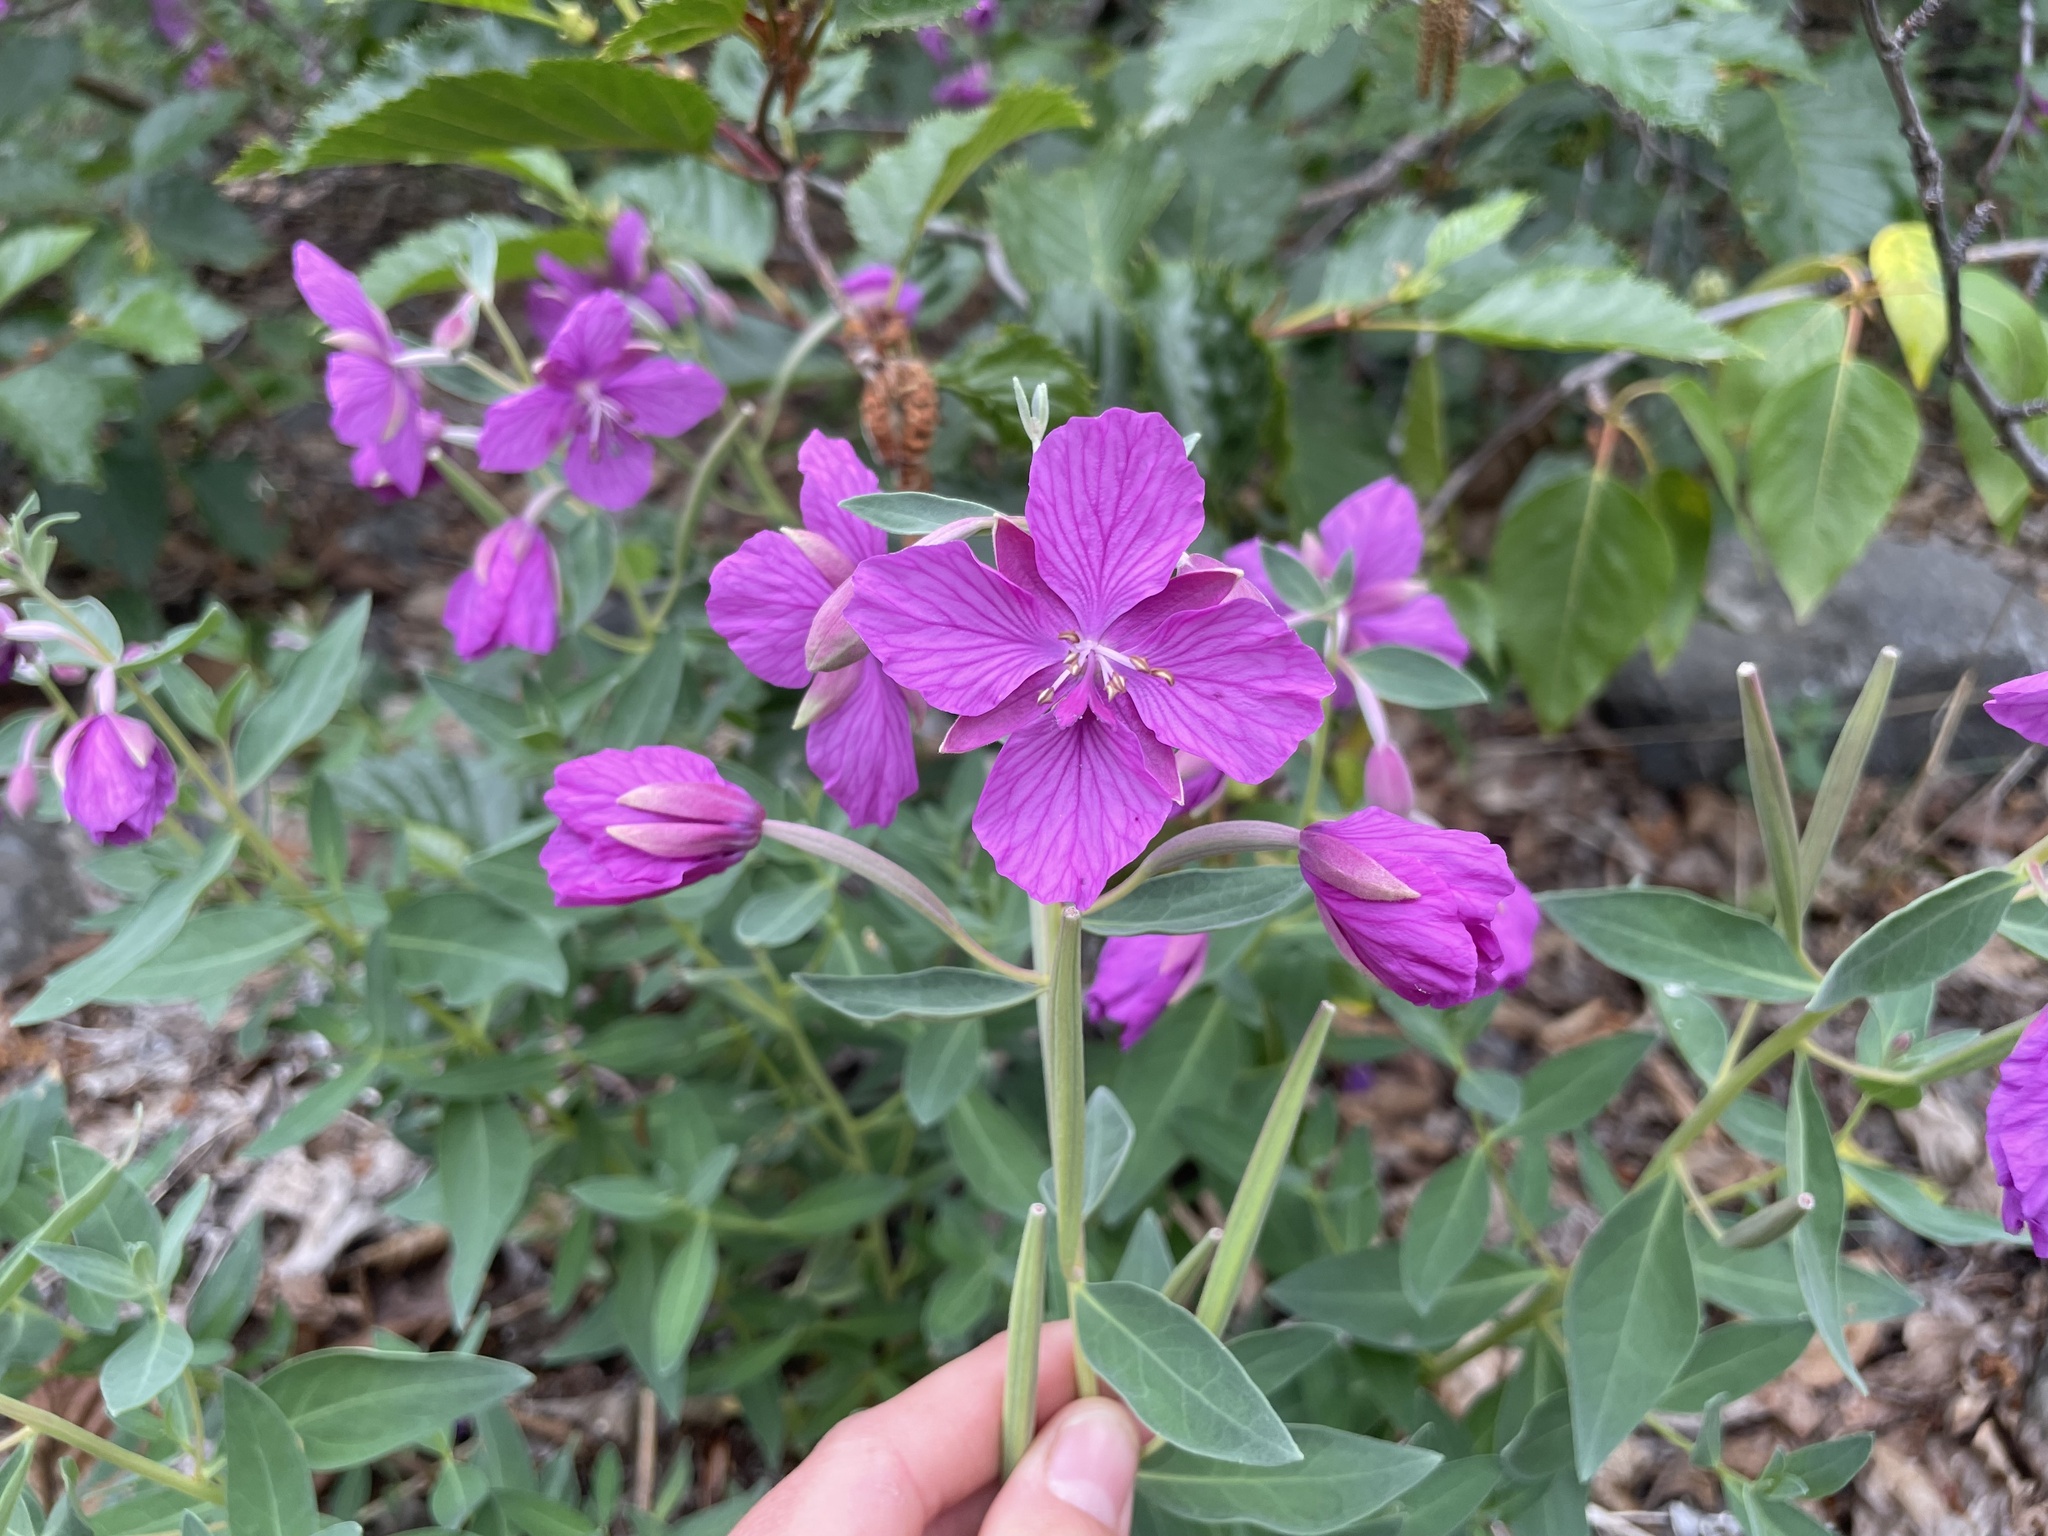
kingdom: Plantae
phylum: Tracheophyta
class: Magnoliopsida
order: Myrtales
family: Onagraceae
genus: Chamaenerion
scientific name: Chamaenerion latifolium
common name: Dwarf fireweed
